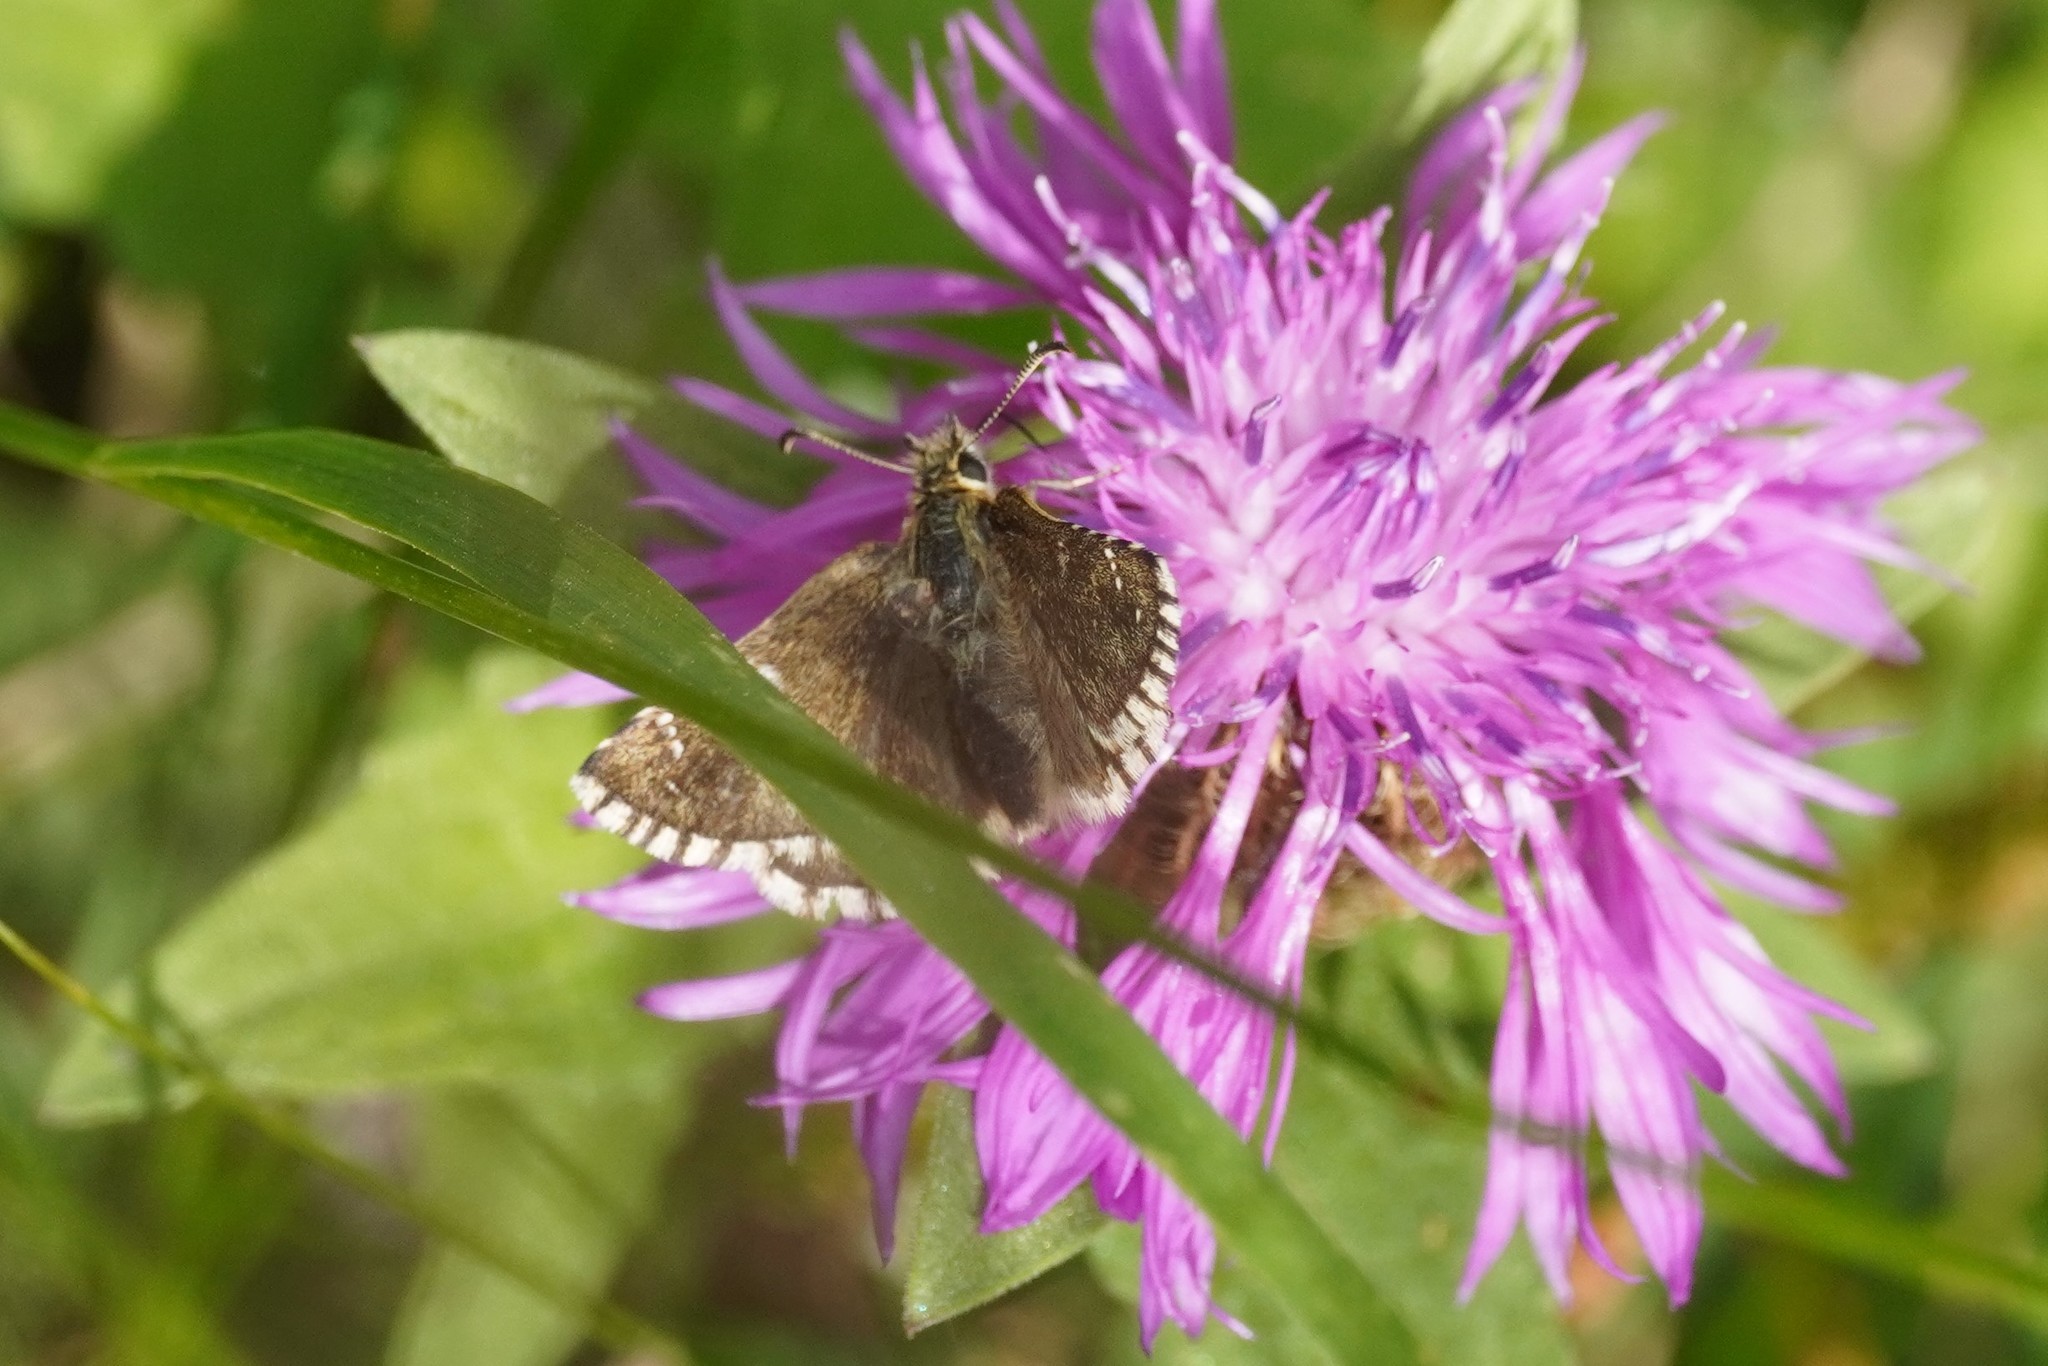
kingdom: Animalia
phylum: Arthropoda
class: Insecta
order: Lepidoptera
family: Hesperiidae
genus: Pyrgus
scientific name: Pyrgus carlinae
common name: Carline skipper
